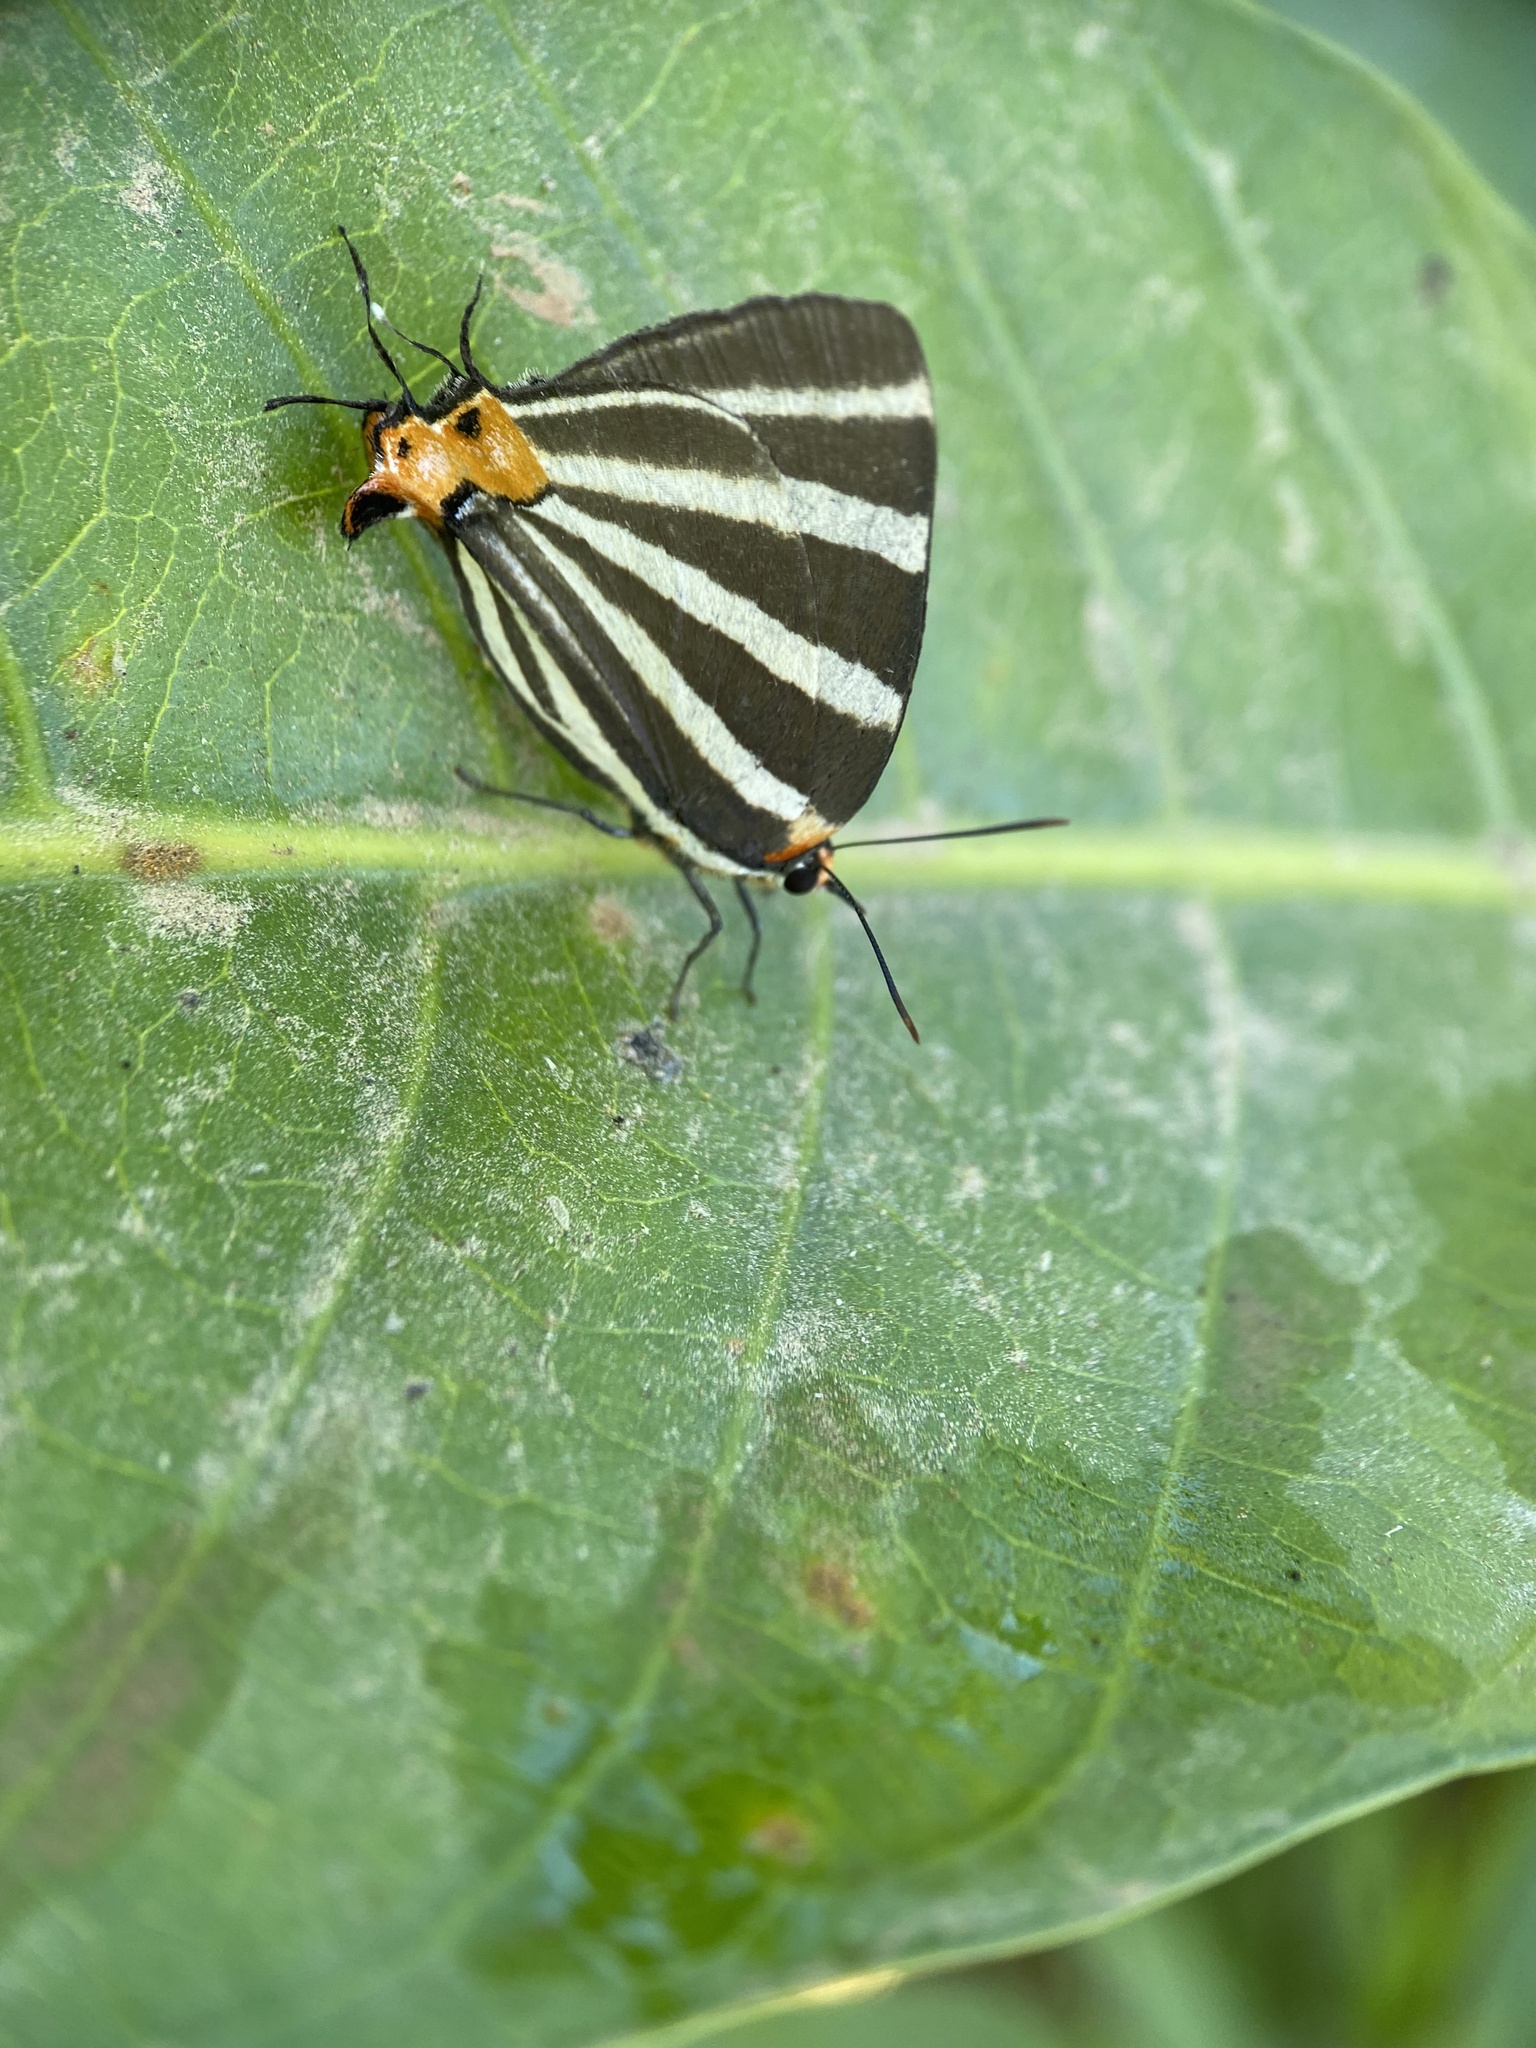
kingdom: Animalia
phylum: Arthropoda
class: Insecta
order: Lepidoptera
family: Lycaenidae
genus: Thecla
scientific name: Thecla bathildis
